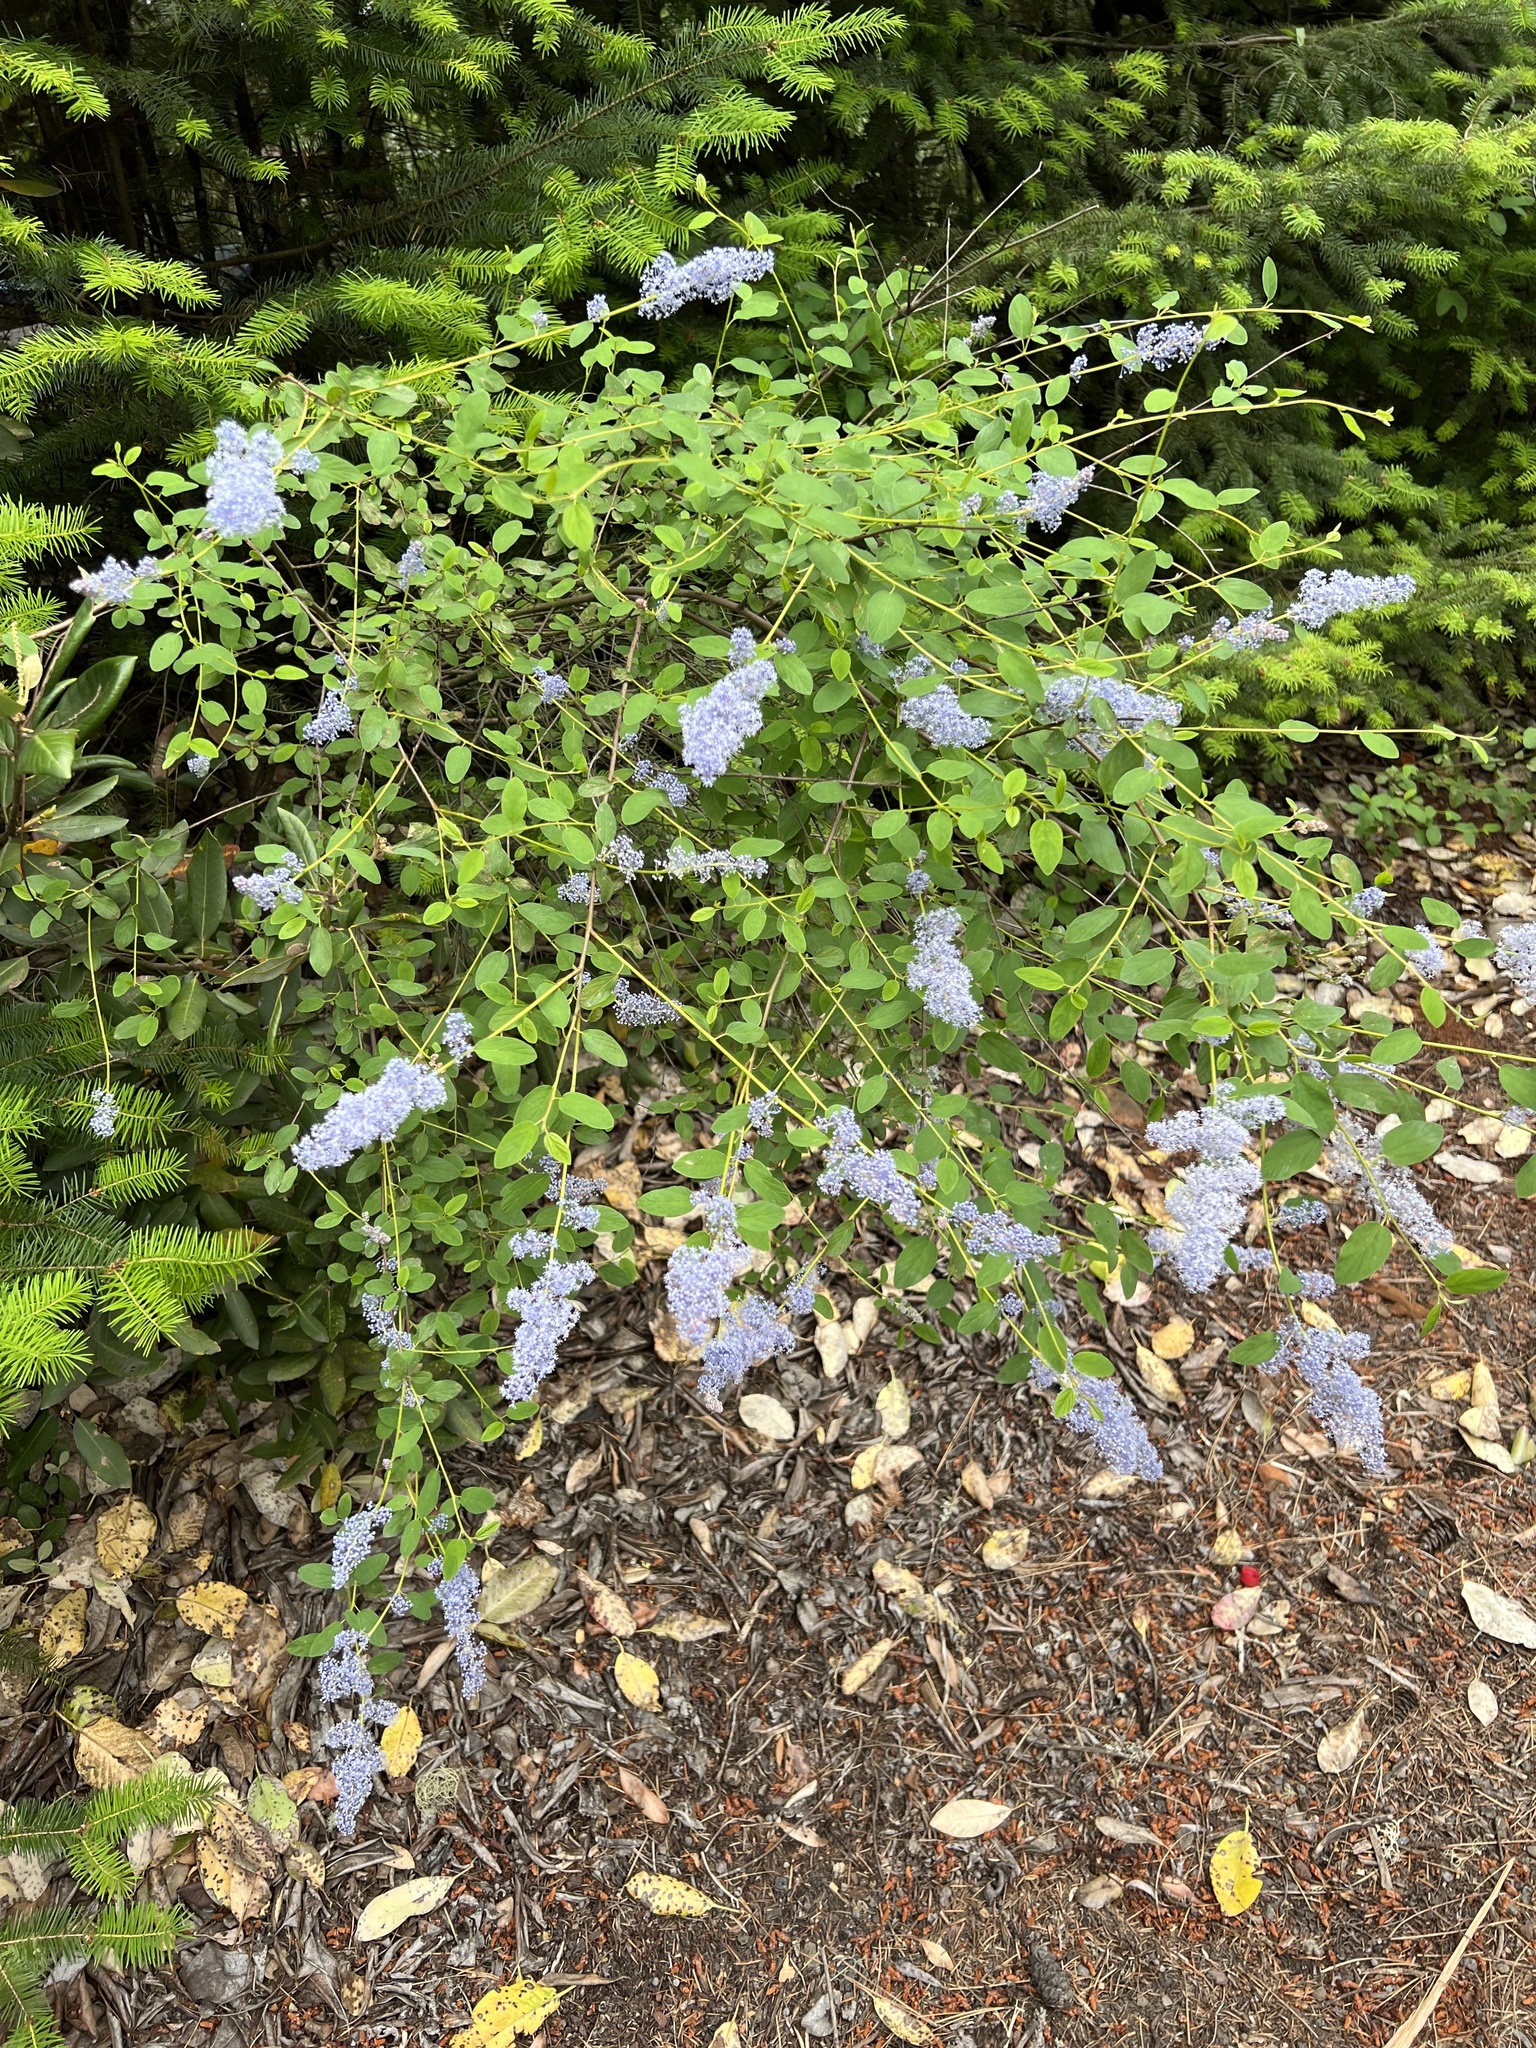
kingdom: Plantae
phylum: Tracheophyta
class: Magnoliopsida
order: Rosales
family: Rhamnaceae
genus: Ceanothus
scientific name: Ceanothus integerrimus
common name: Deerbrush ceanothus
